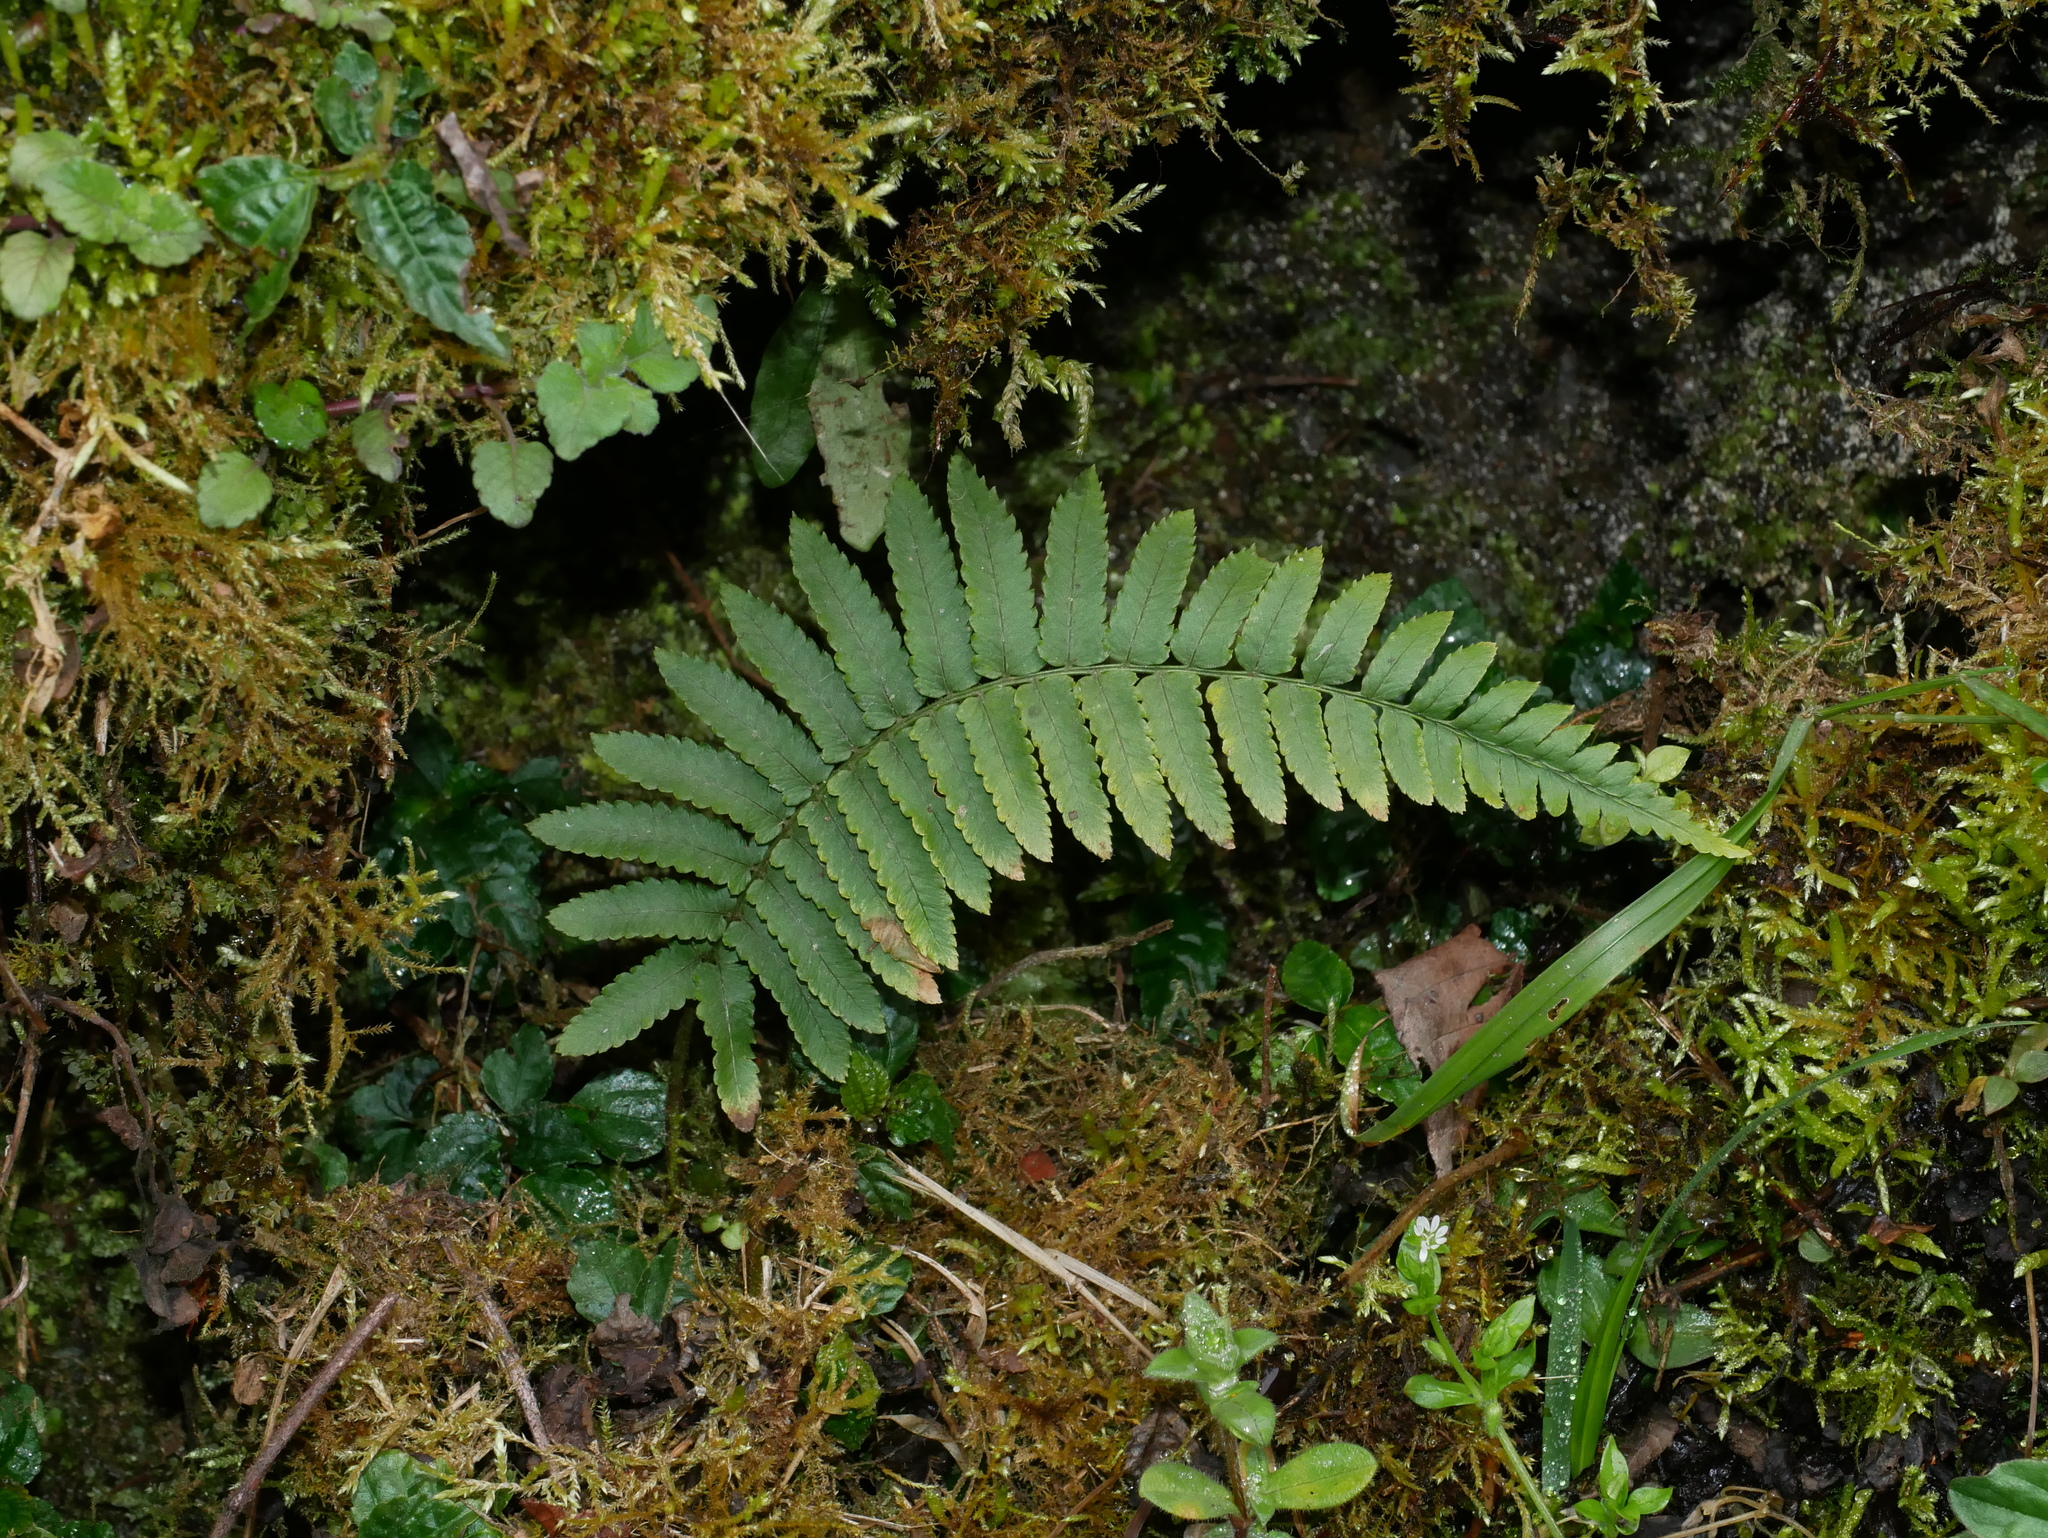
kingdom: Plantae
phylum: Tracheophyta
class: Polypodiopsida
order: Polypodiales
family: Dryopteridaceae
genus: Dryopteris
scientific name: Dryopteris subatrata
